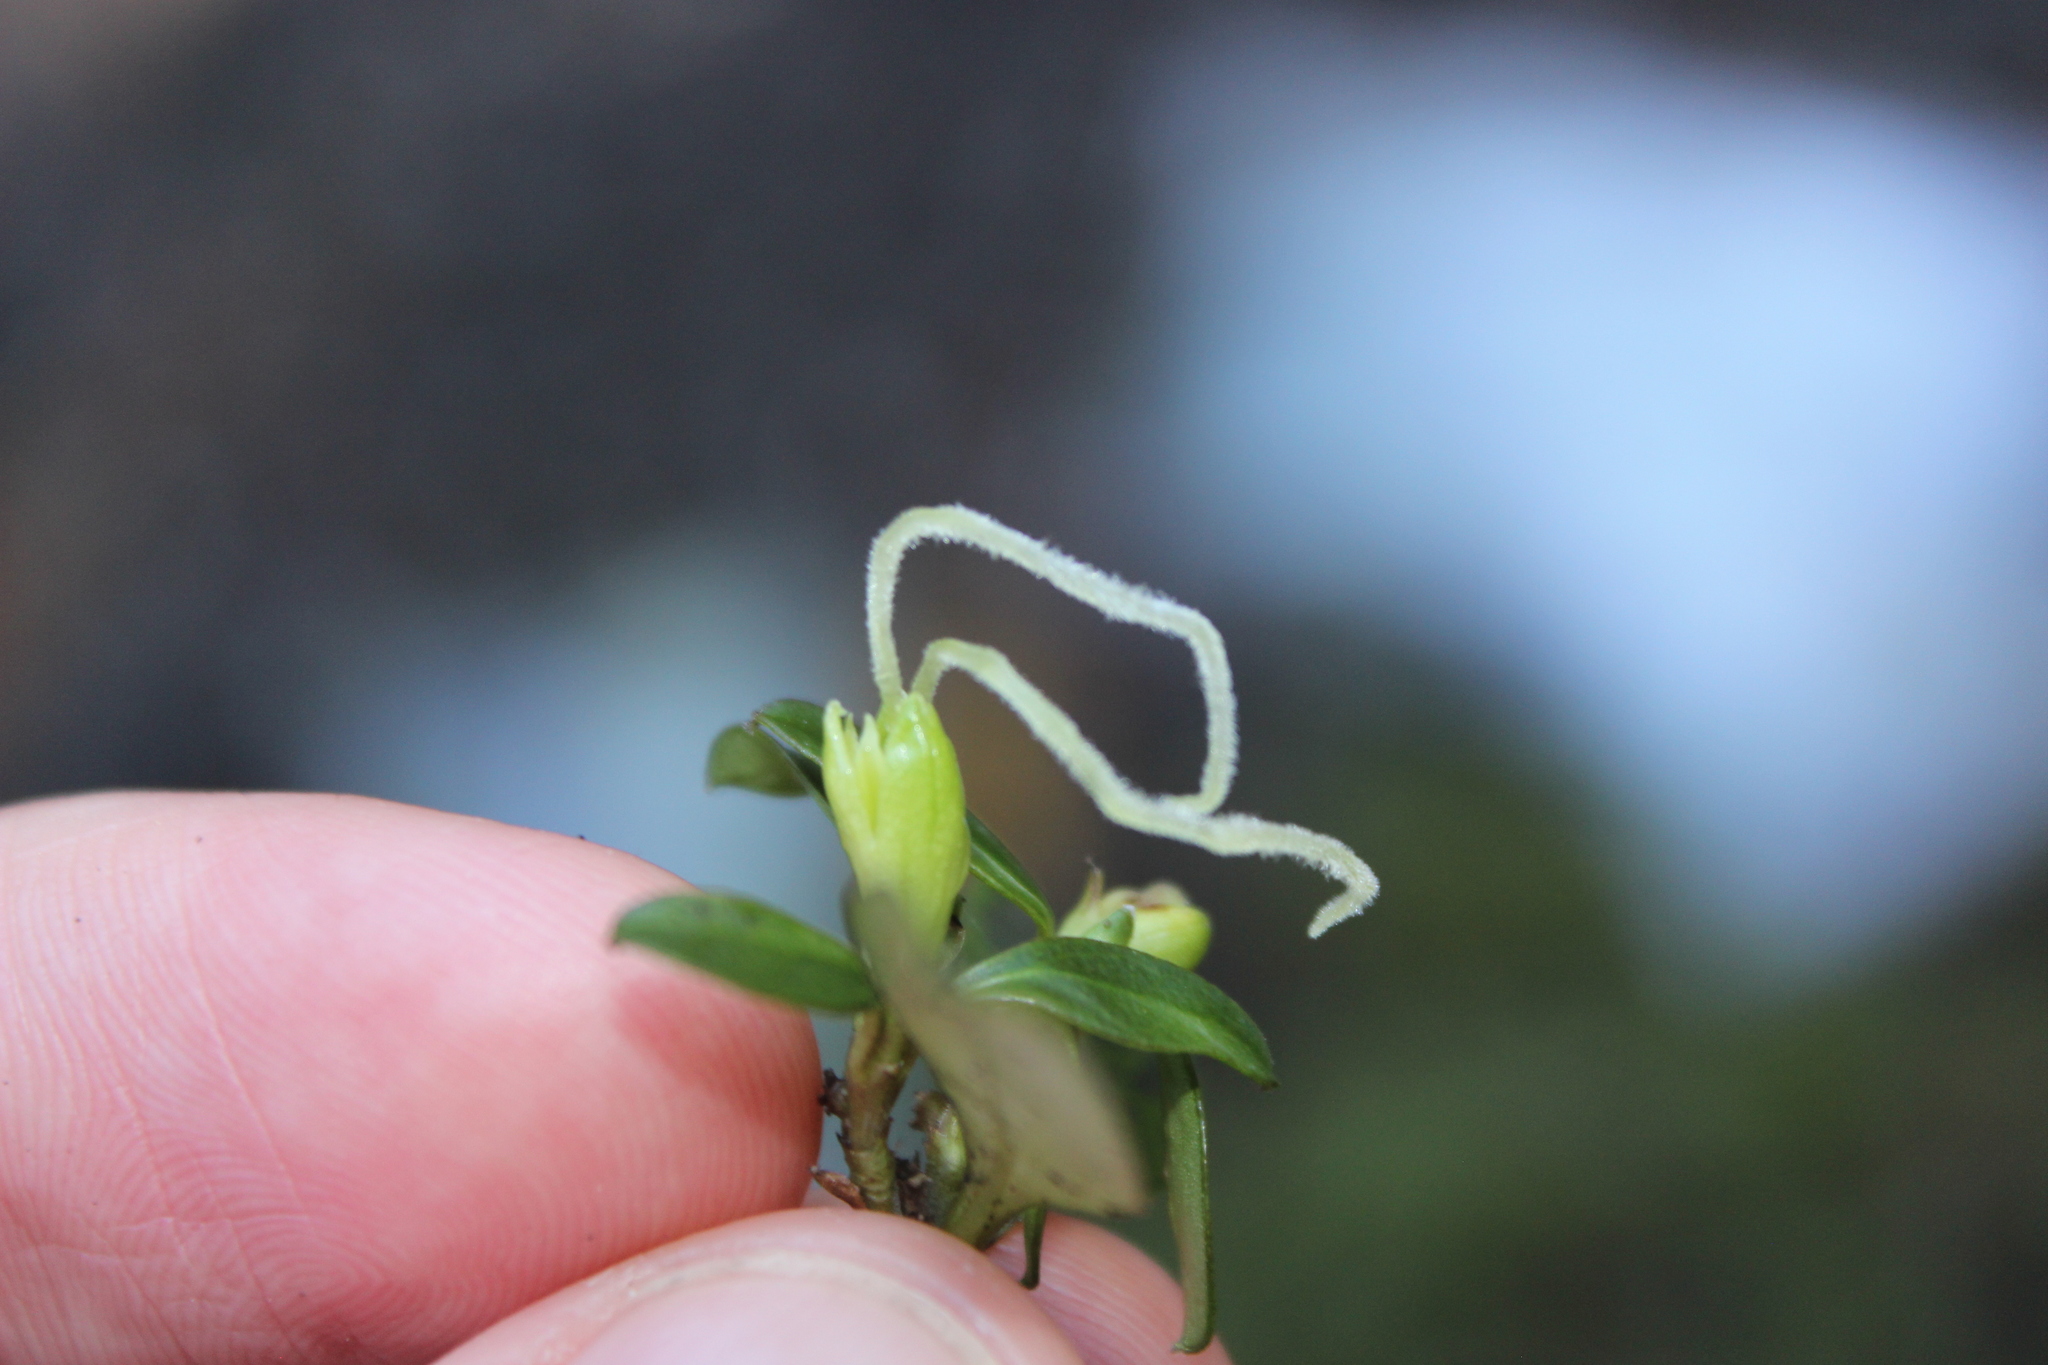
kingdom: Plantae
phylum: Tracheophyta
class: Magnoliopsida
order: Gentianales
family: Rubiaceae
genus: Coprosma
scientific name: Coprosma foetidissima
